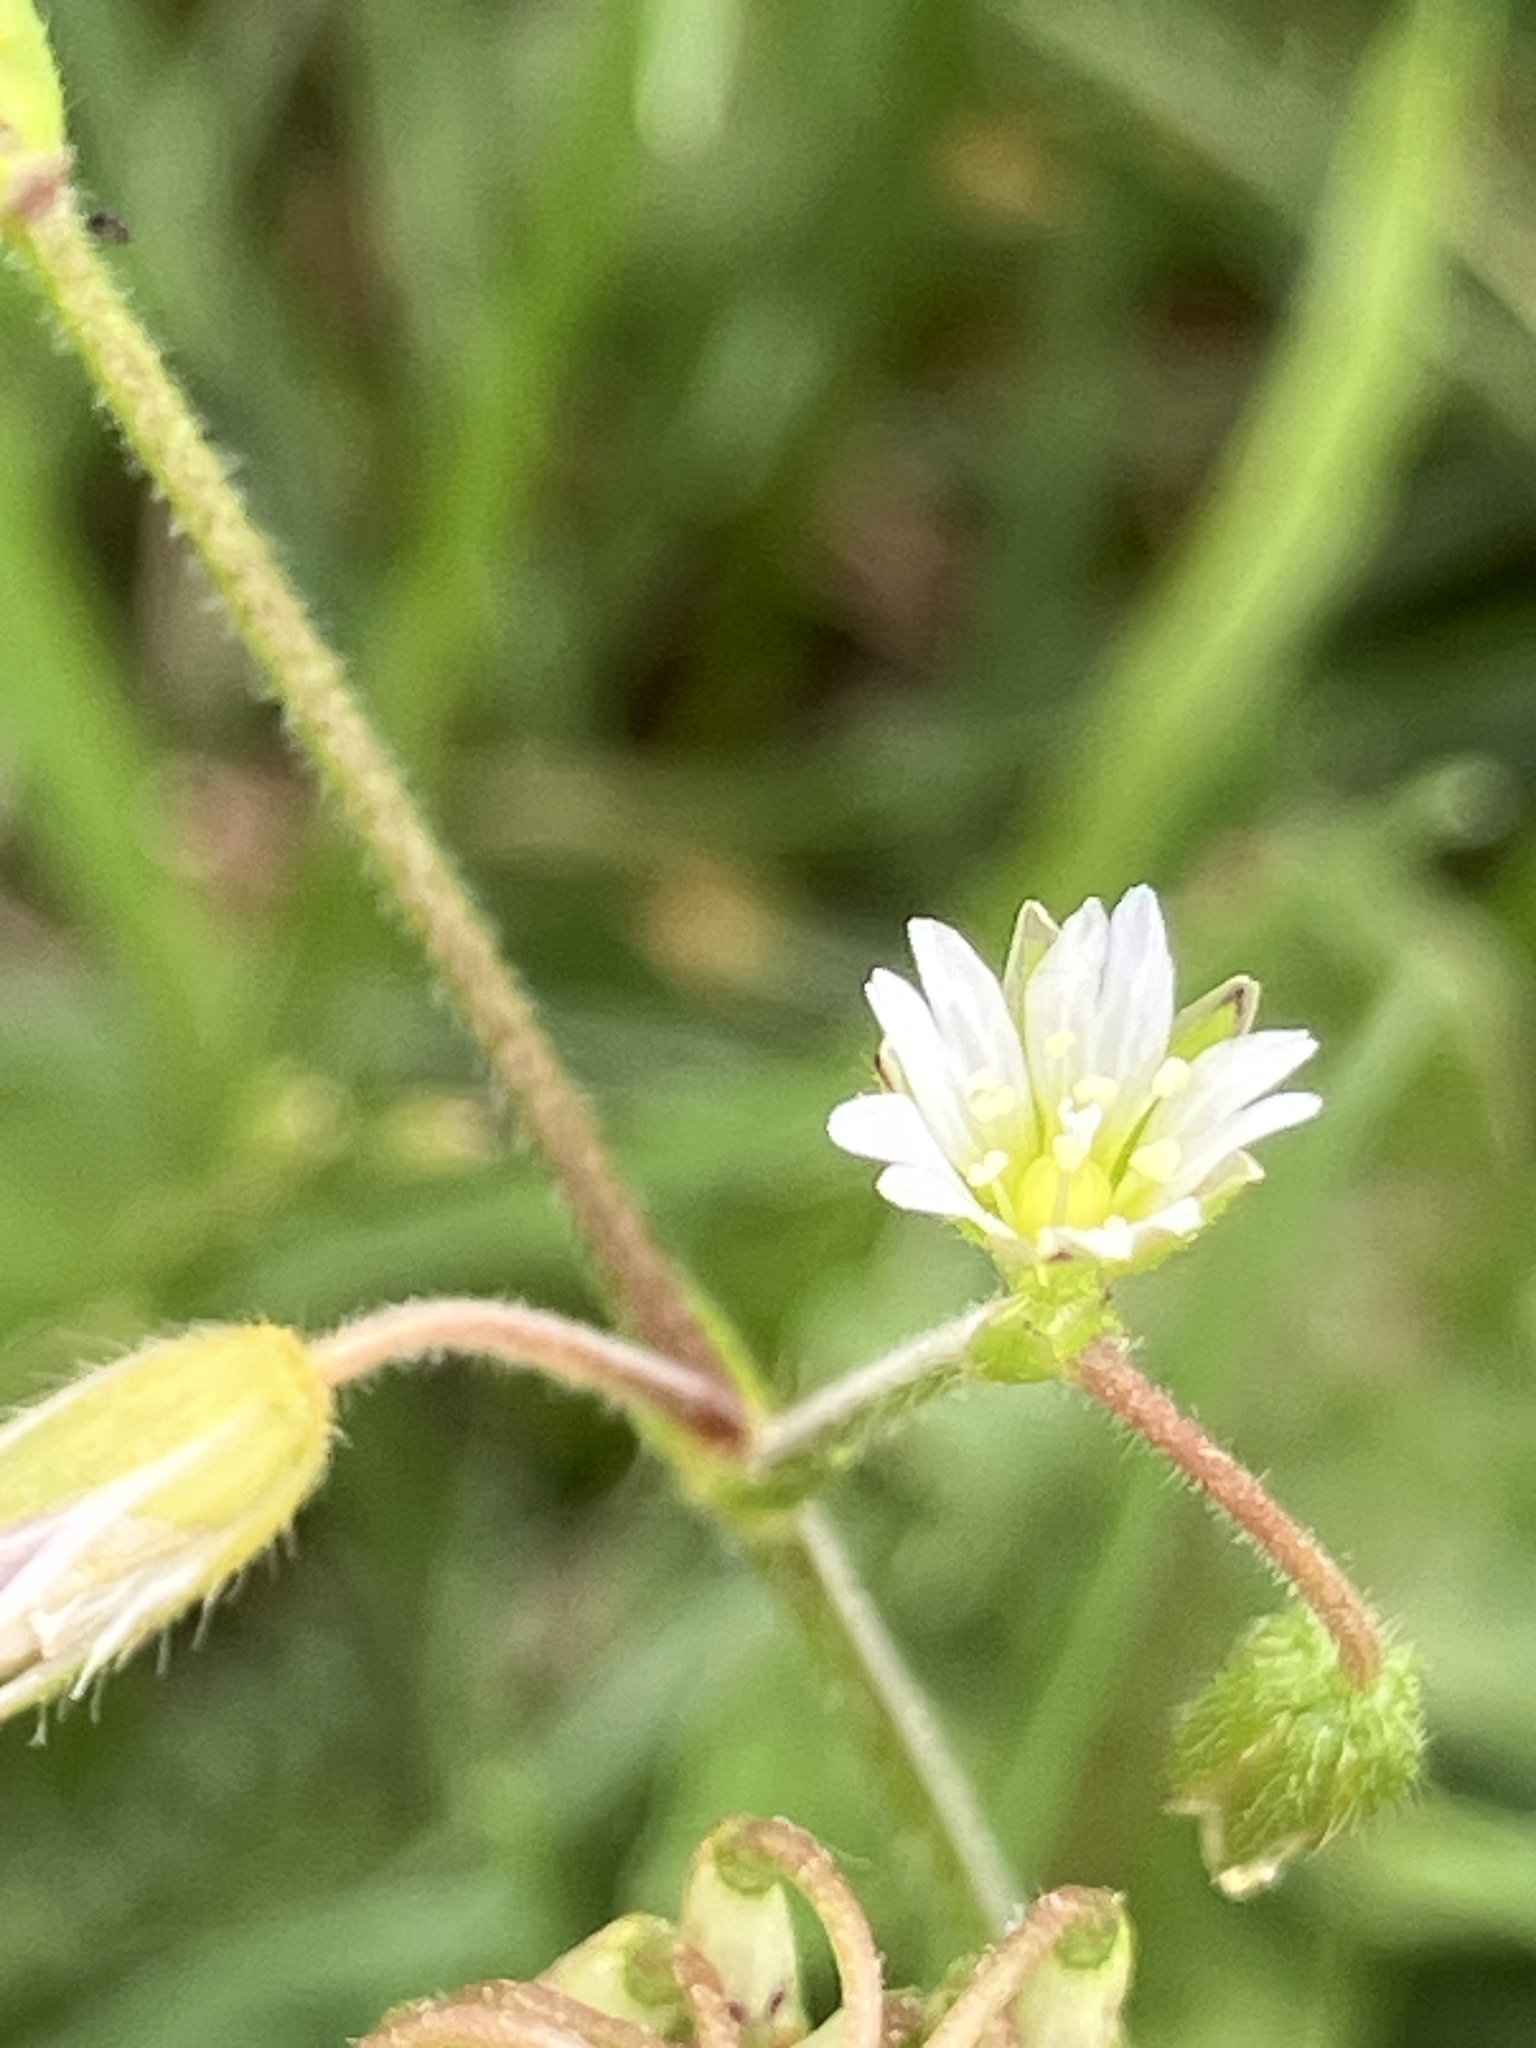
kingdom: Plantae
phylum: Tracheophyta
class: Magnoliopsida
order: Caryophyllales
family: Caryophyllaceae
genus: Cerastium
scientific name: Cerastium holosteoides
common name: Big chickweed
